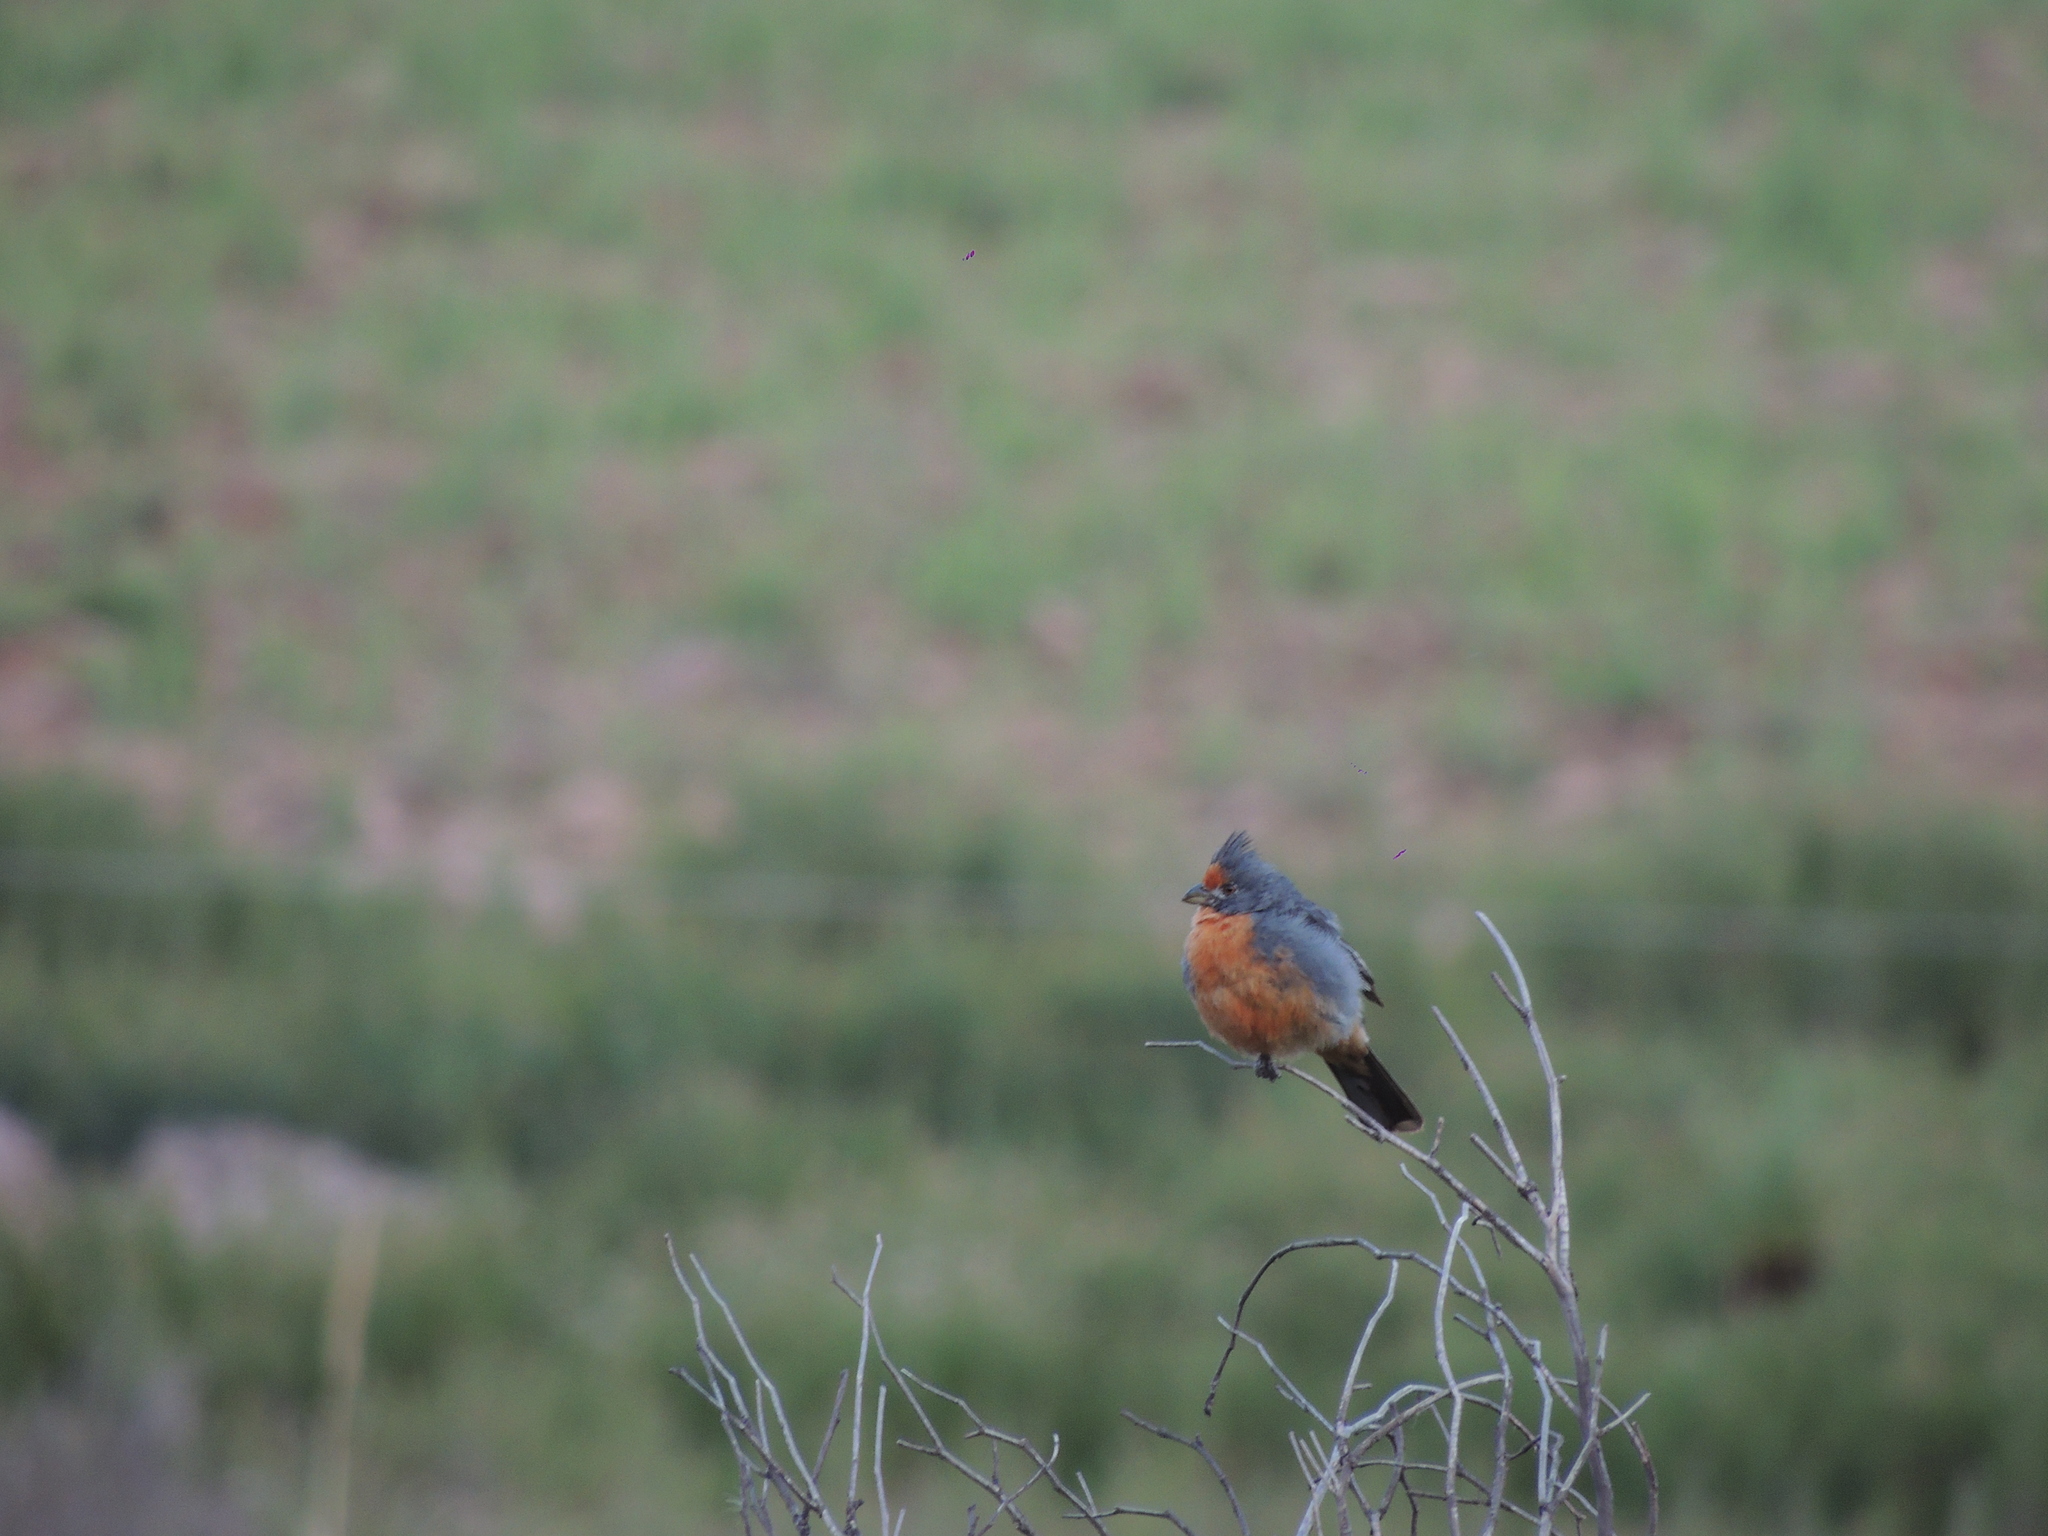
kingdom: Animalia
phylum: Chordata
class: Aves
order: Passeriformes
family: Cotingidae
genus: Phytotoma
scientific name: Phytotoma rutila
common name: White-tipped plantcutter
